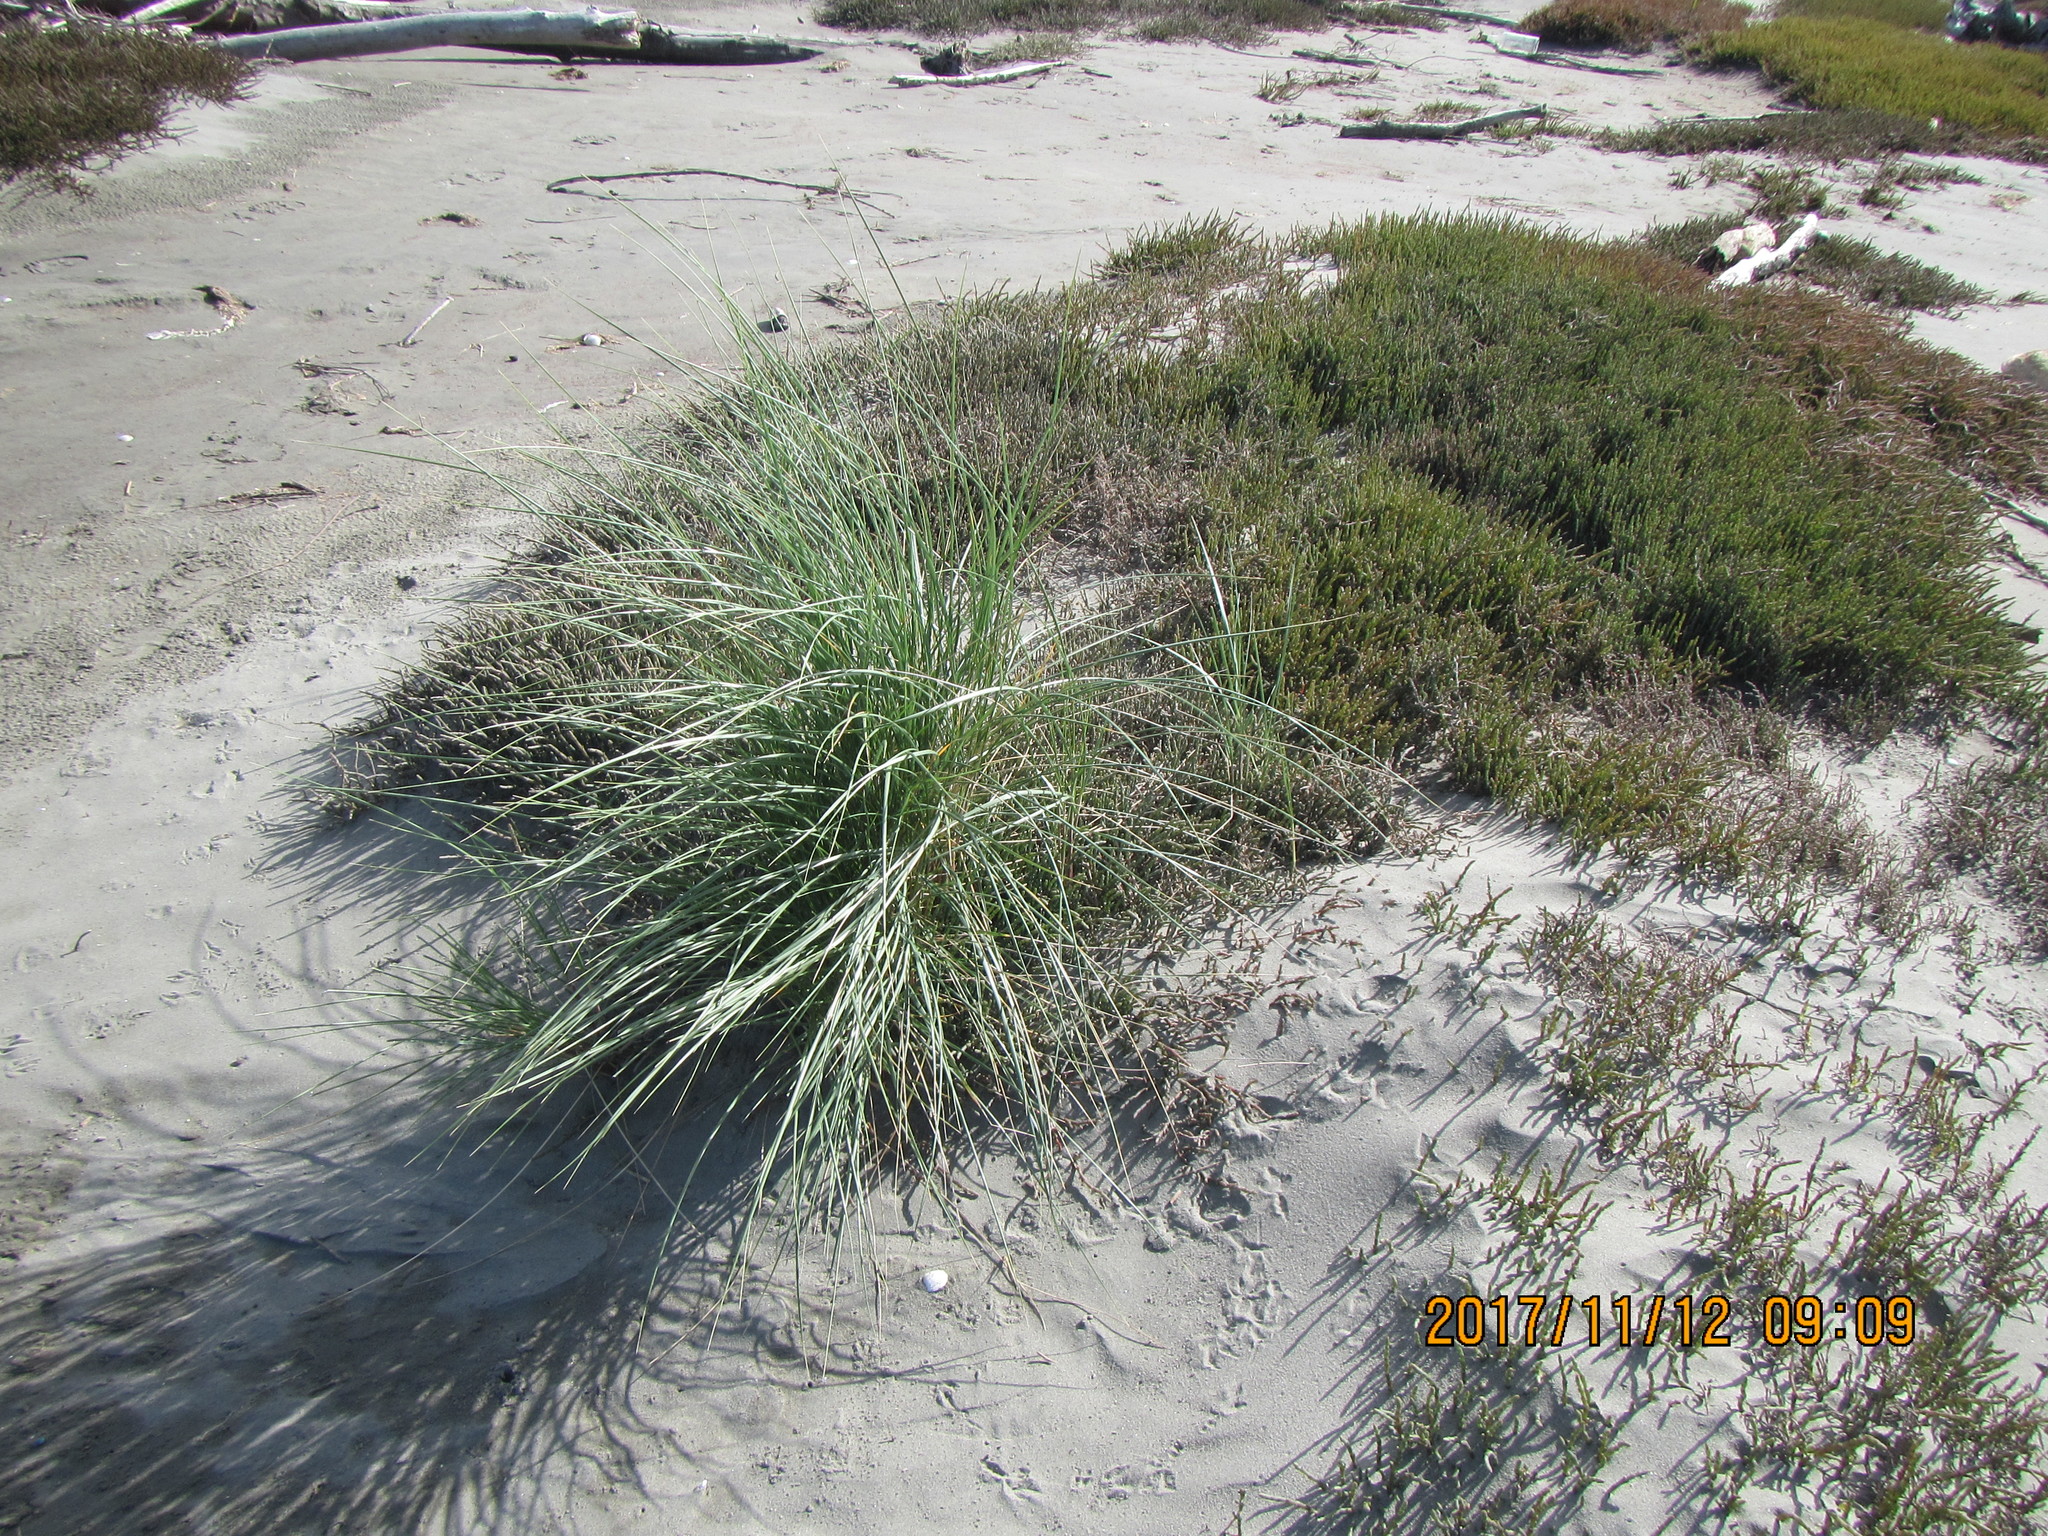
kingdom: Plantae
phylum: Tracheophyta
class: Liliopsida
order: Poales
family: Poaceae
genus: Calamagrostis
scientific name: Calamagrostis arenaria
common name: European beachgrass
